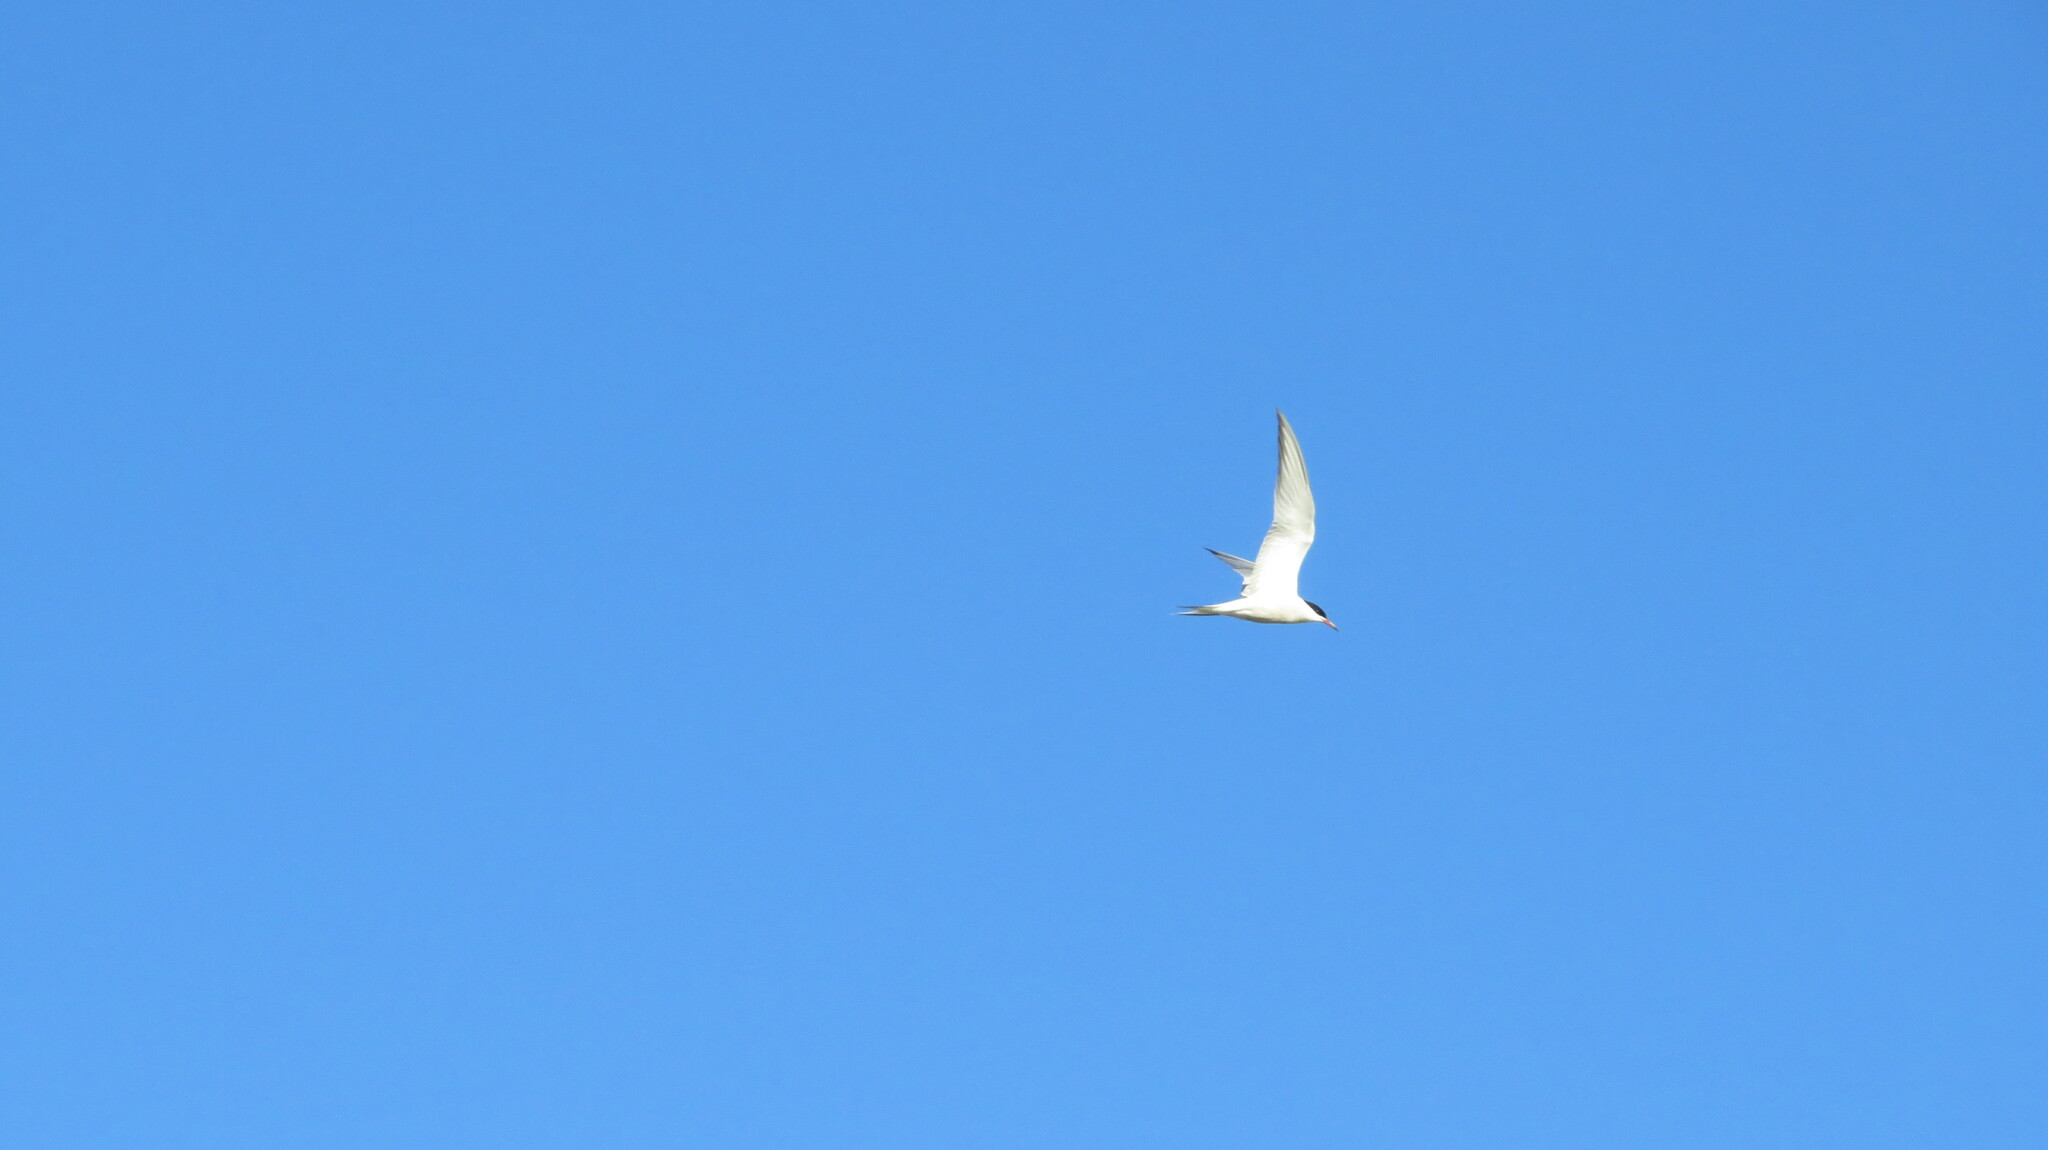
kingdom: Animalia
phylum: Chordata
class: Aves
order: Charadriiformes
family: Laridae
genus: Sterna
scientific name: Sterna hirundo
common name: Common tern
